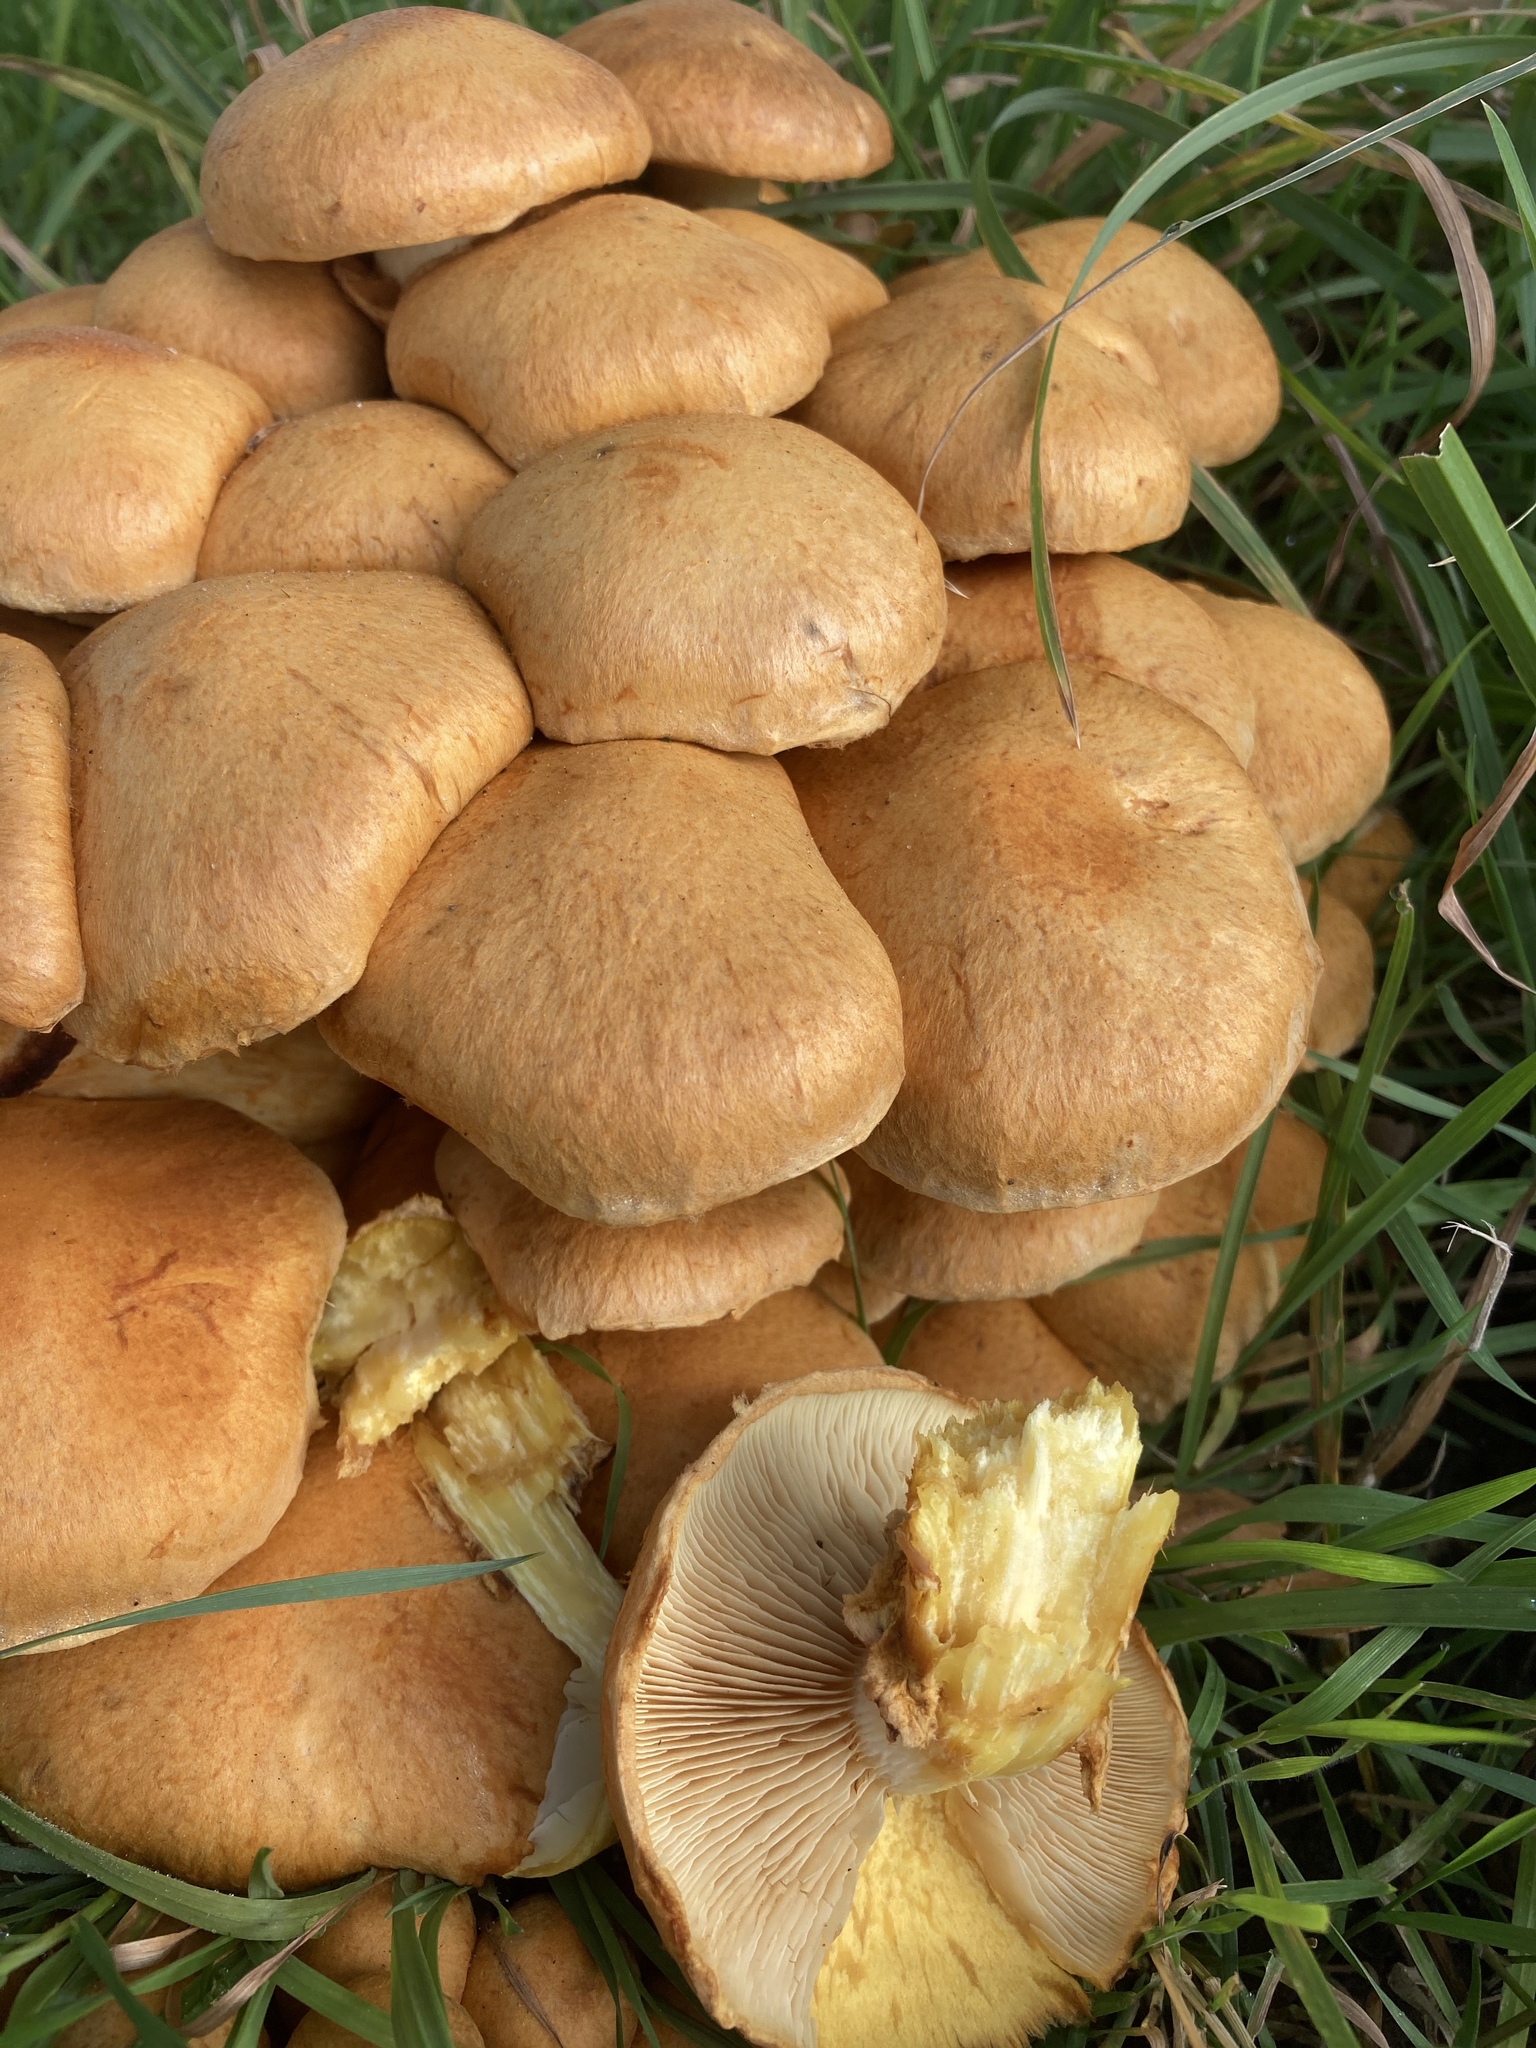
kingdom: Fungi
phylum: Basidiomycota
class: Agaricomycetes
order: Agaricales
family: Hymenogastraceae
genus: Gymnopilus
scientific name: Gymnopilus junonius
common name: Spectacular rustgill
